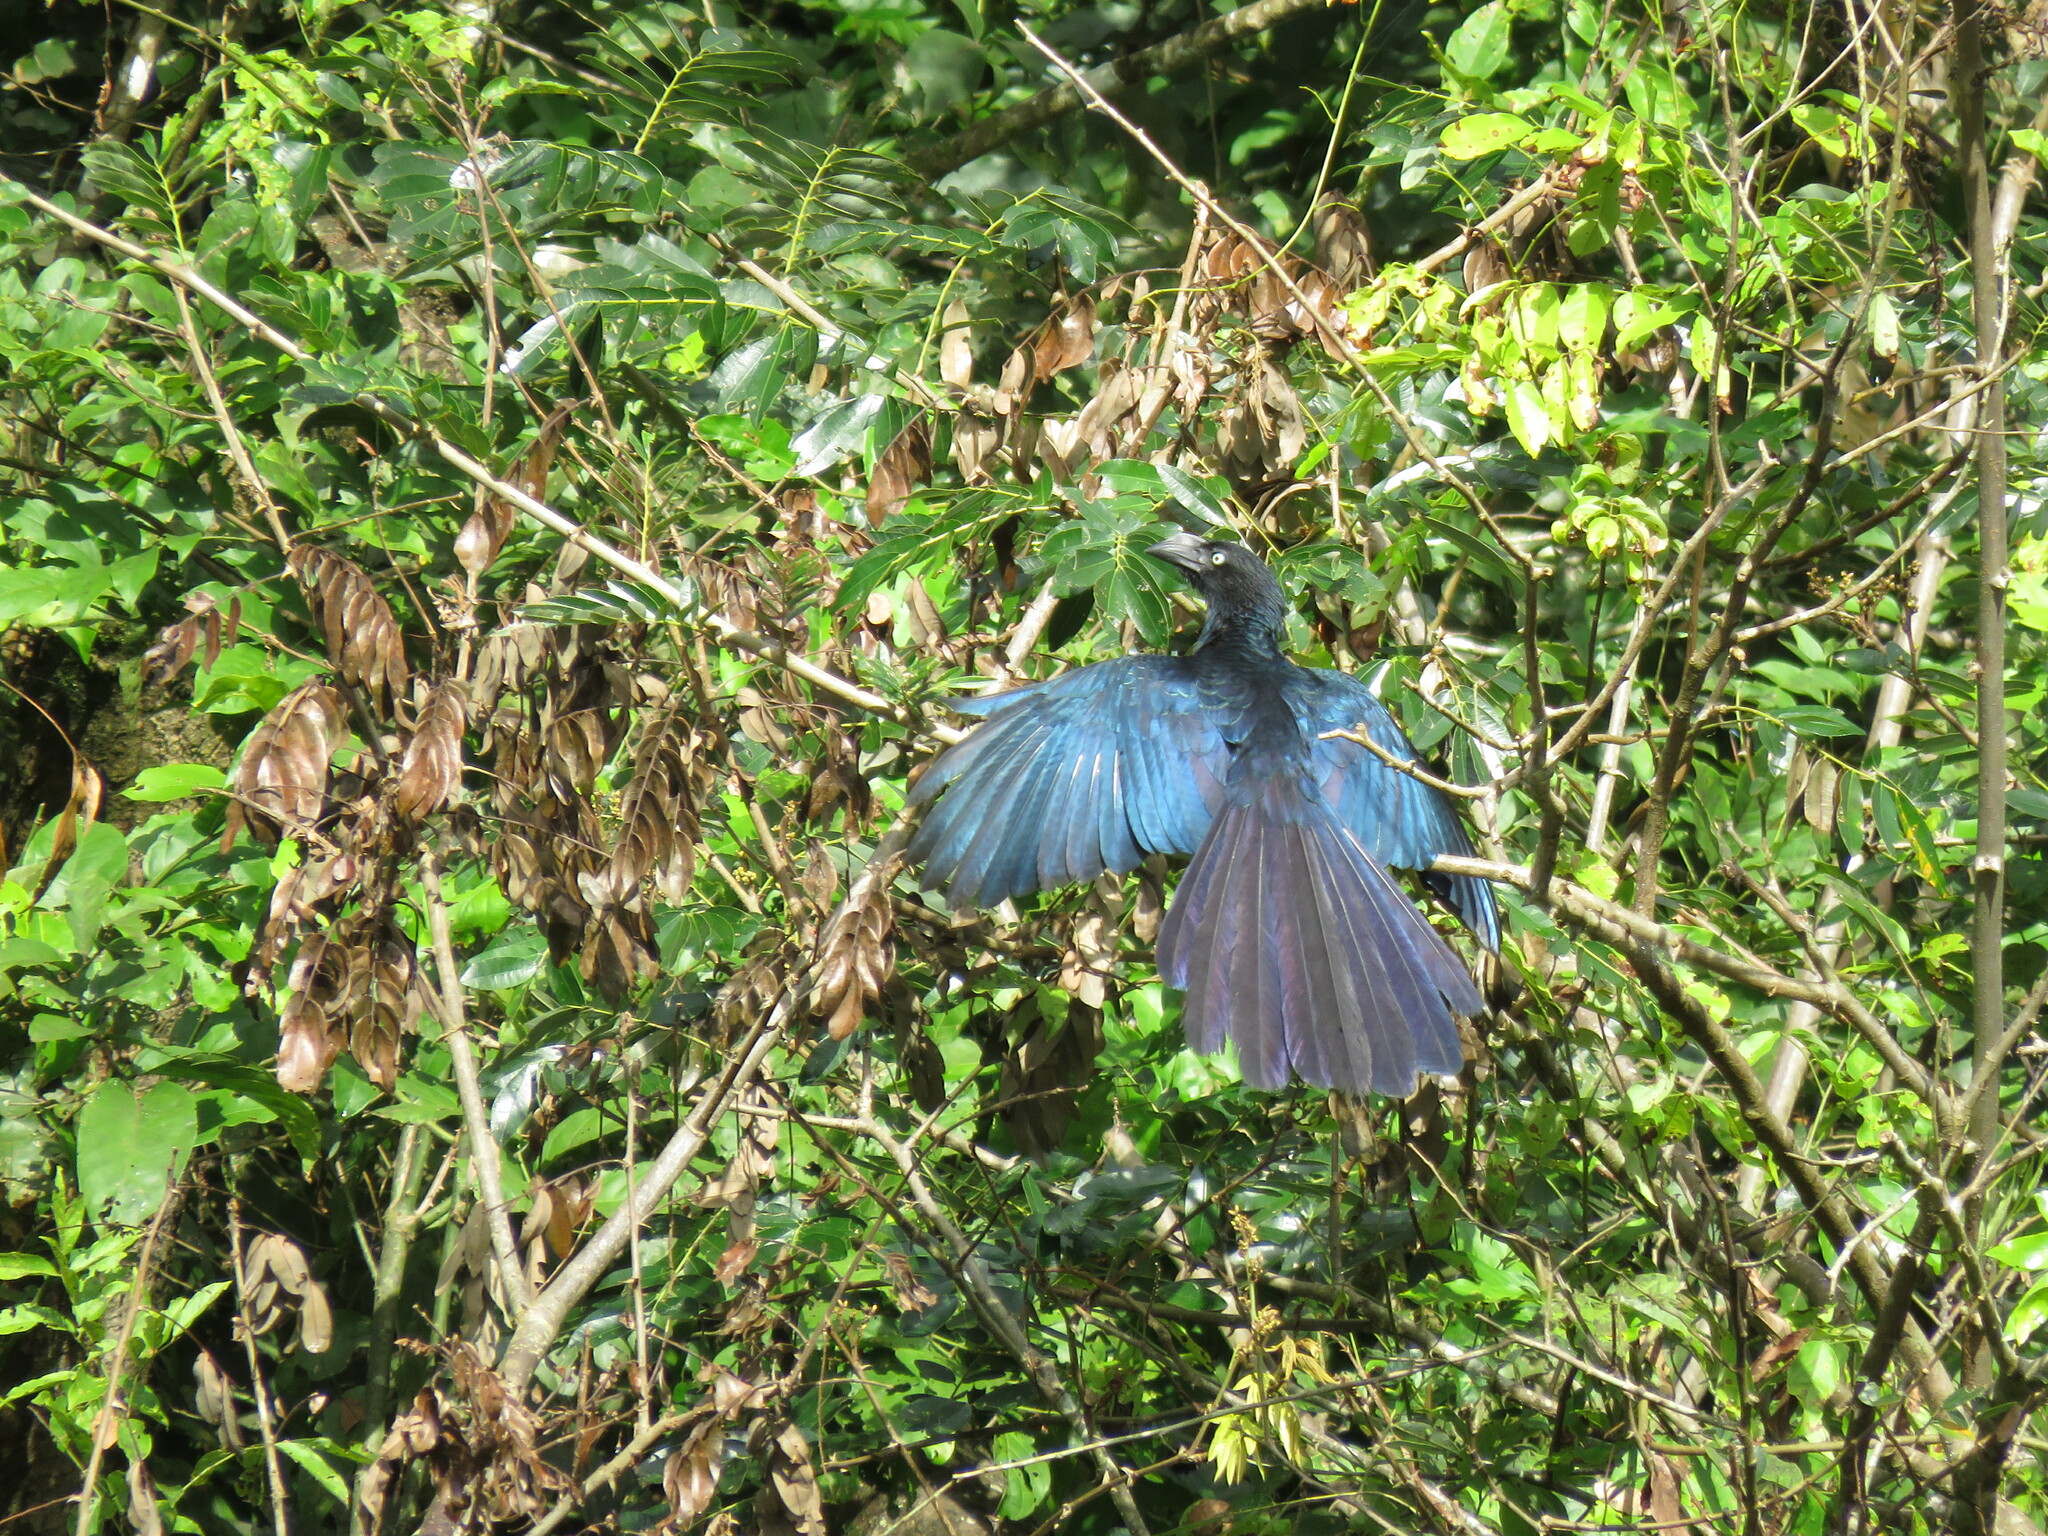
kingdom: Animalia
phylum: Chordata
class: Aves
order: Cuculiformes
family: Cuculidae
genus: Crotophaga
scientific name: Crotophaga major
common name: Greater ani
